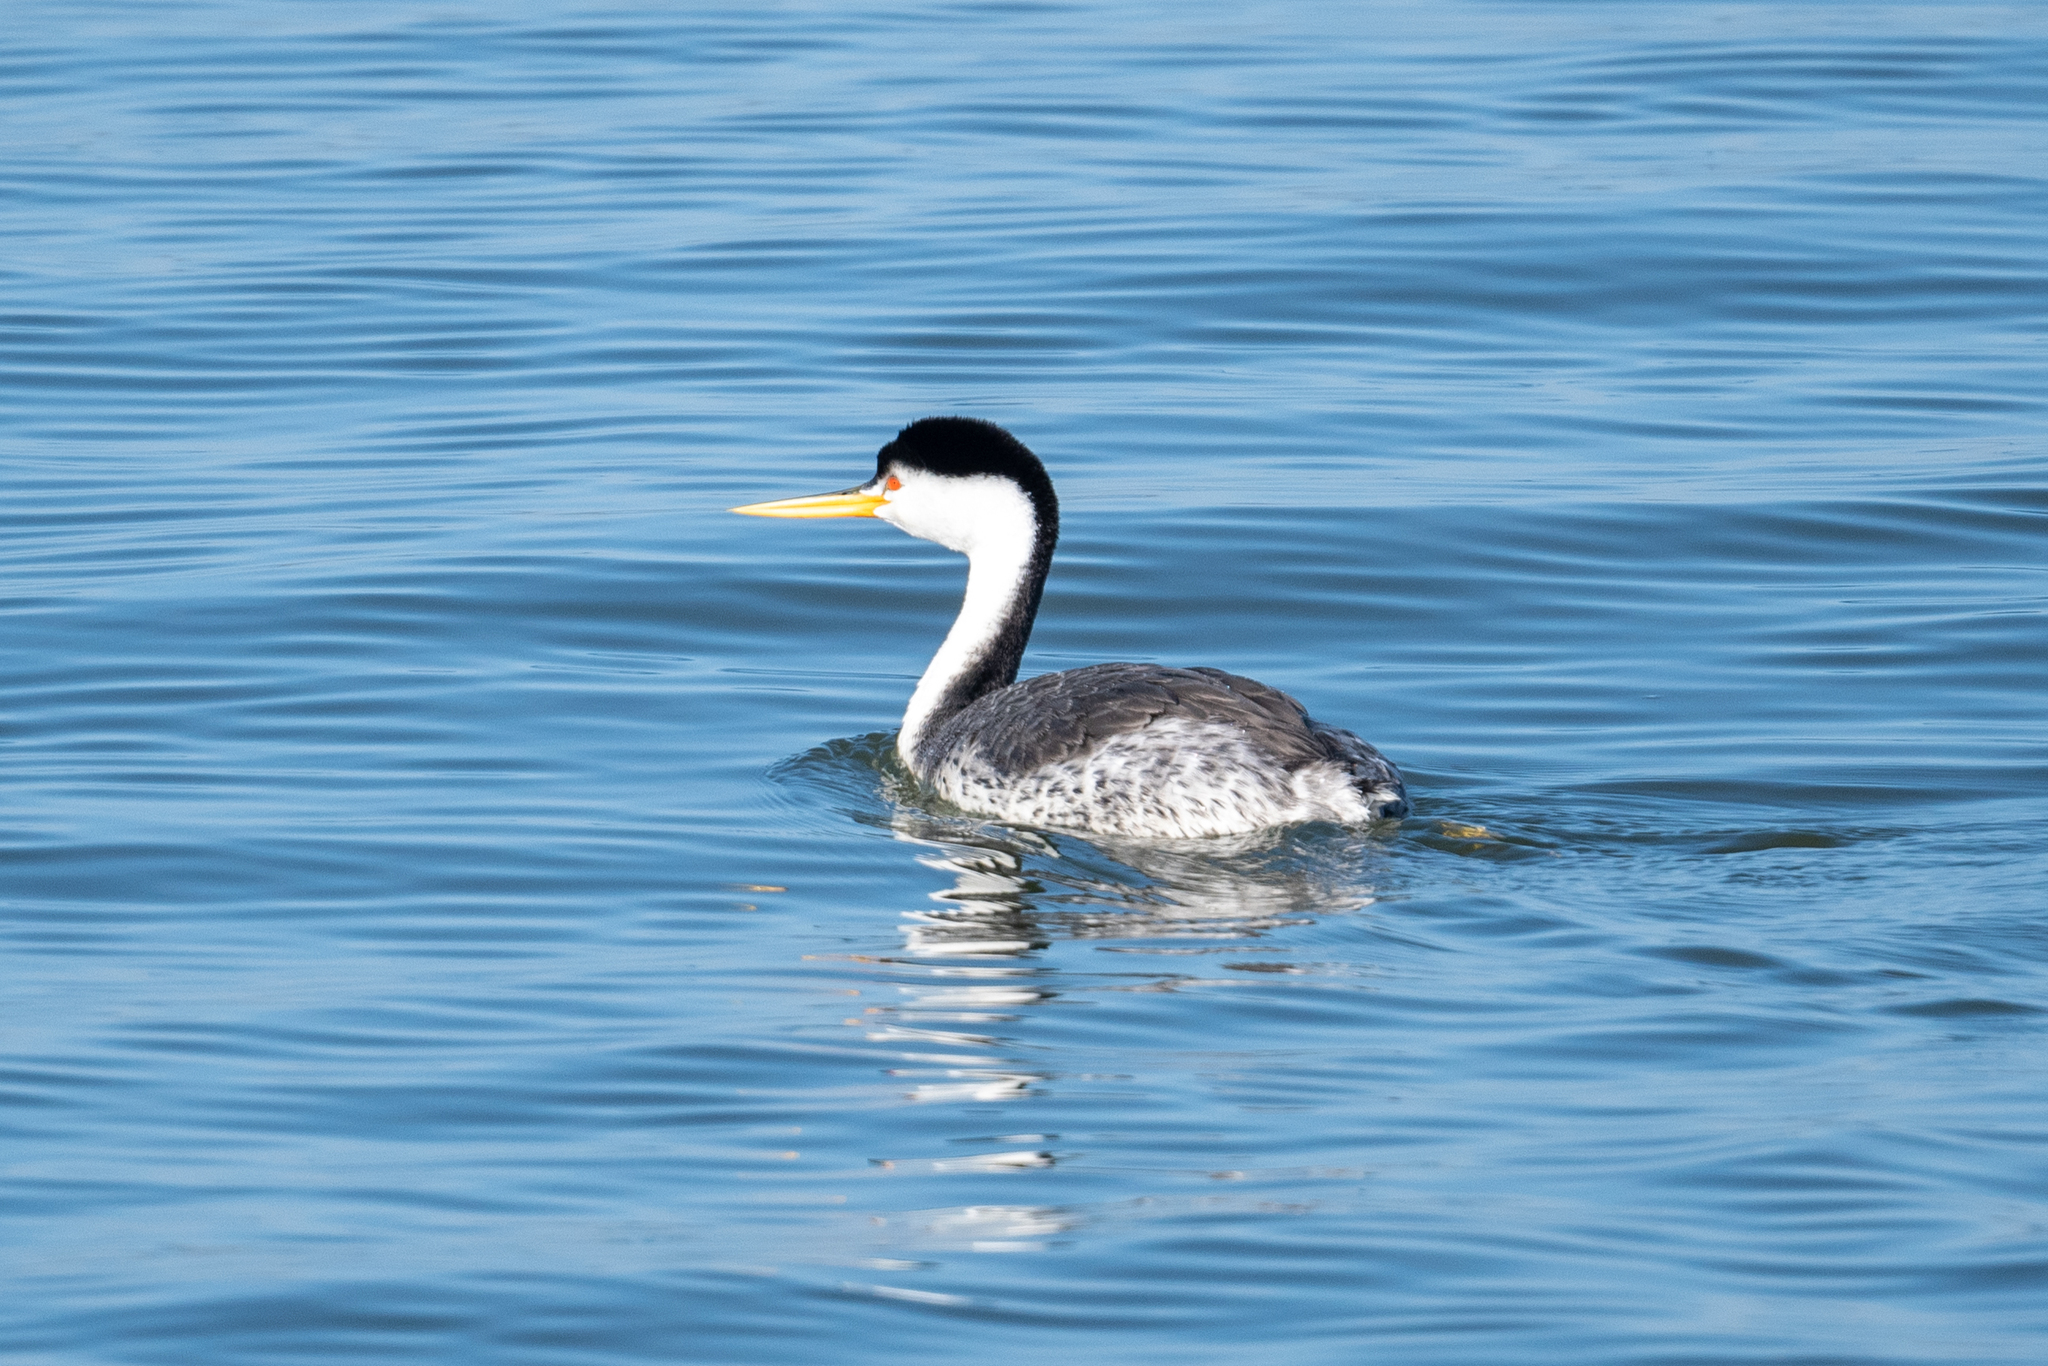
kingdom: Animalia
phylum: Chordata
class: Aves
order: Podicipediformes
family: Podicipedidae
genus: Aechmophorus
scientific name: Aechmophorus clarkii
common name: Clark's grebe
